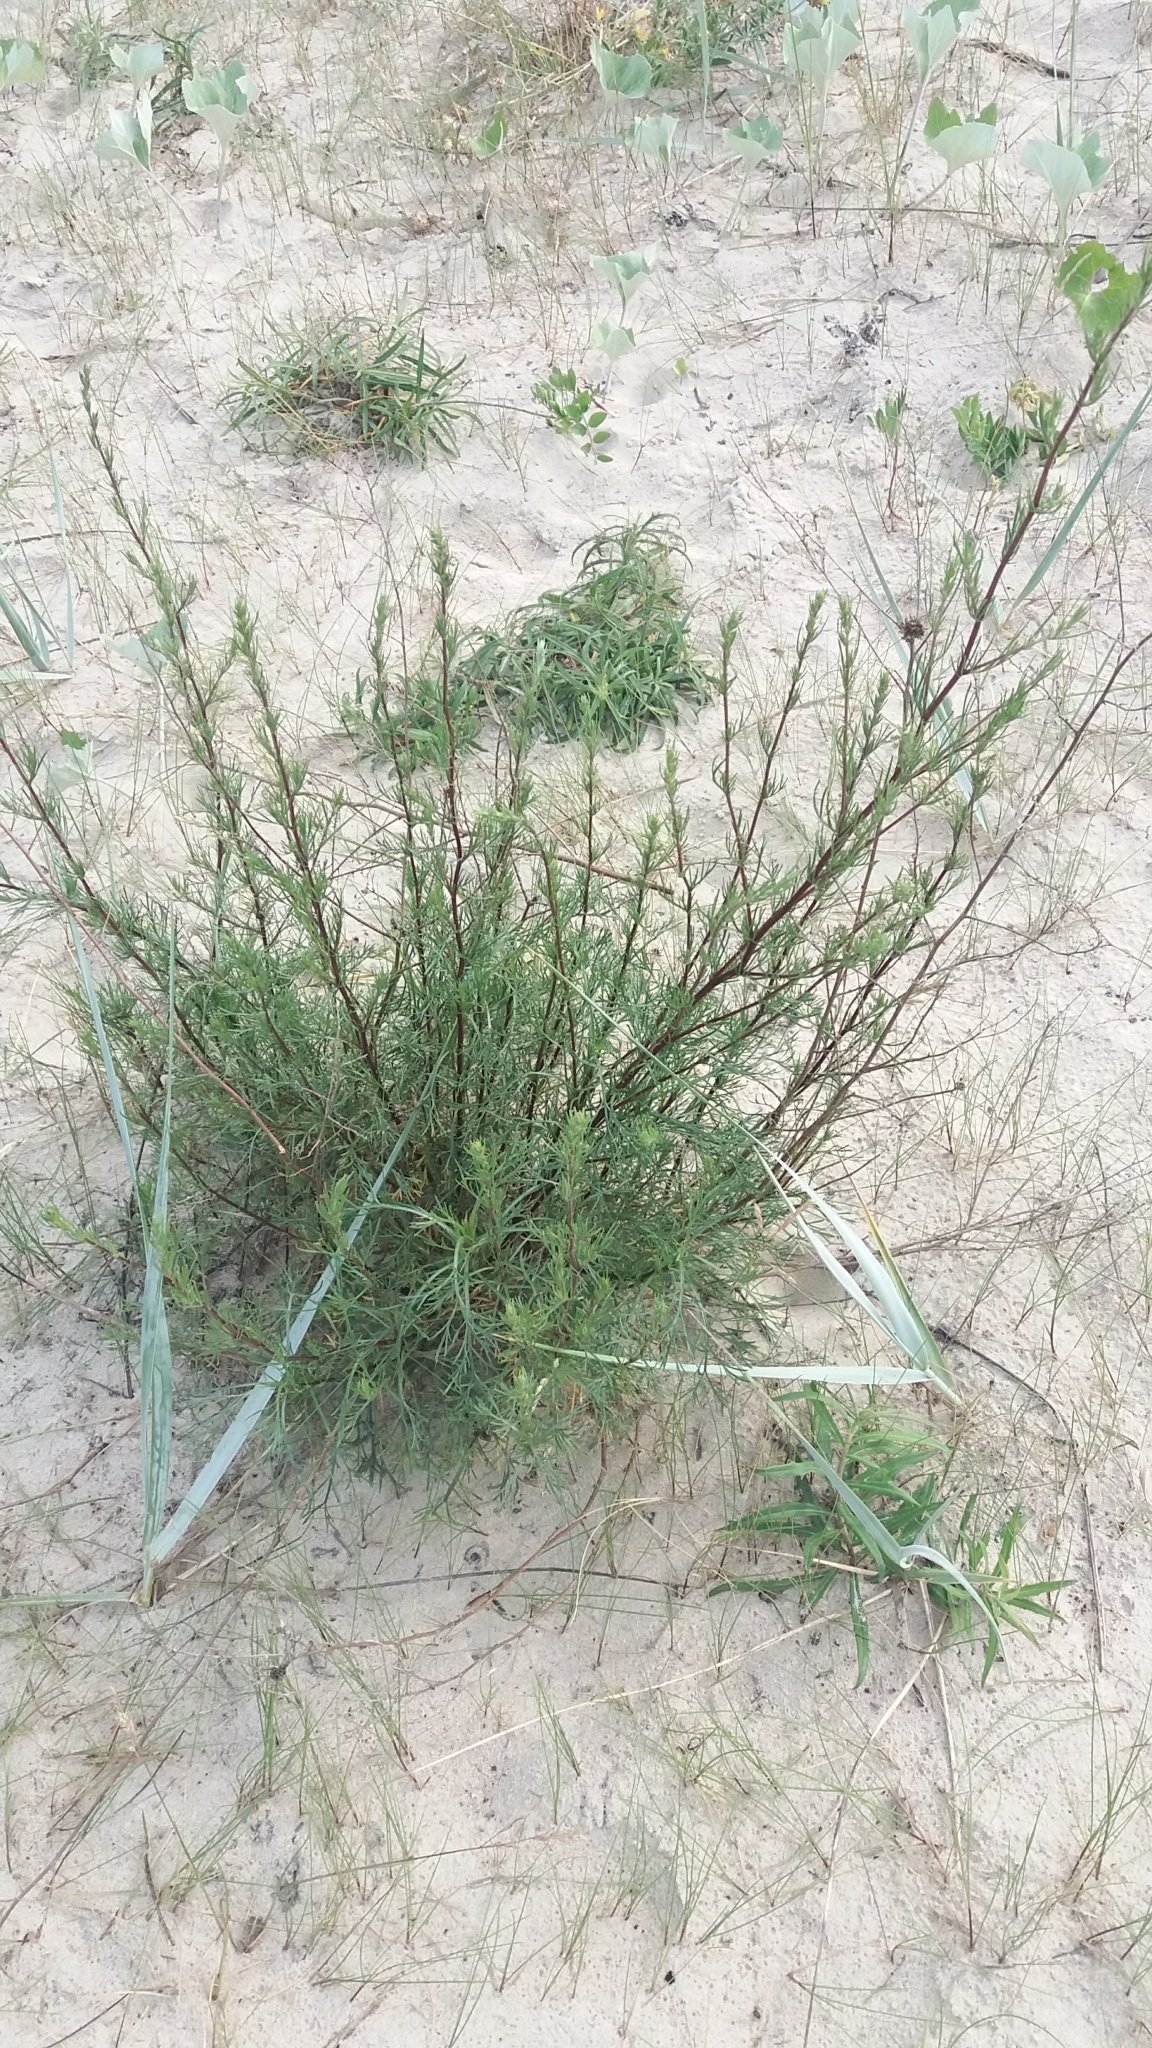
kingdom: Plantae
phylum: Tracheophyta
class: Magnoliopsida
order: Asterales
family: Asteraceae
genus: Artemisia
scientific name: Artemisia campestris
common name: Field wormwood
